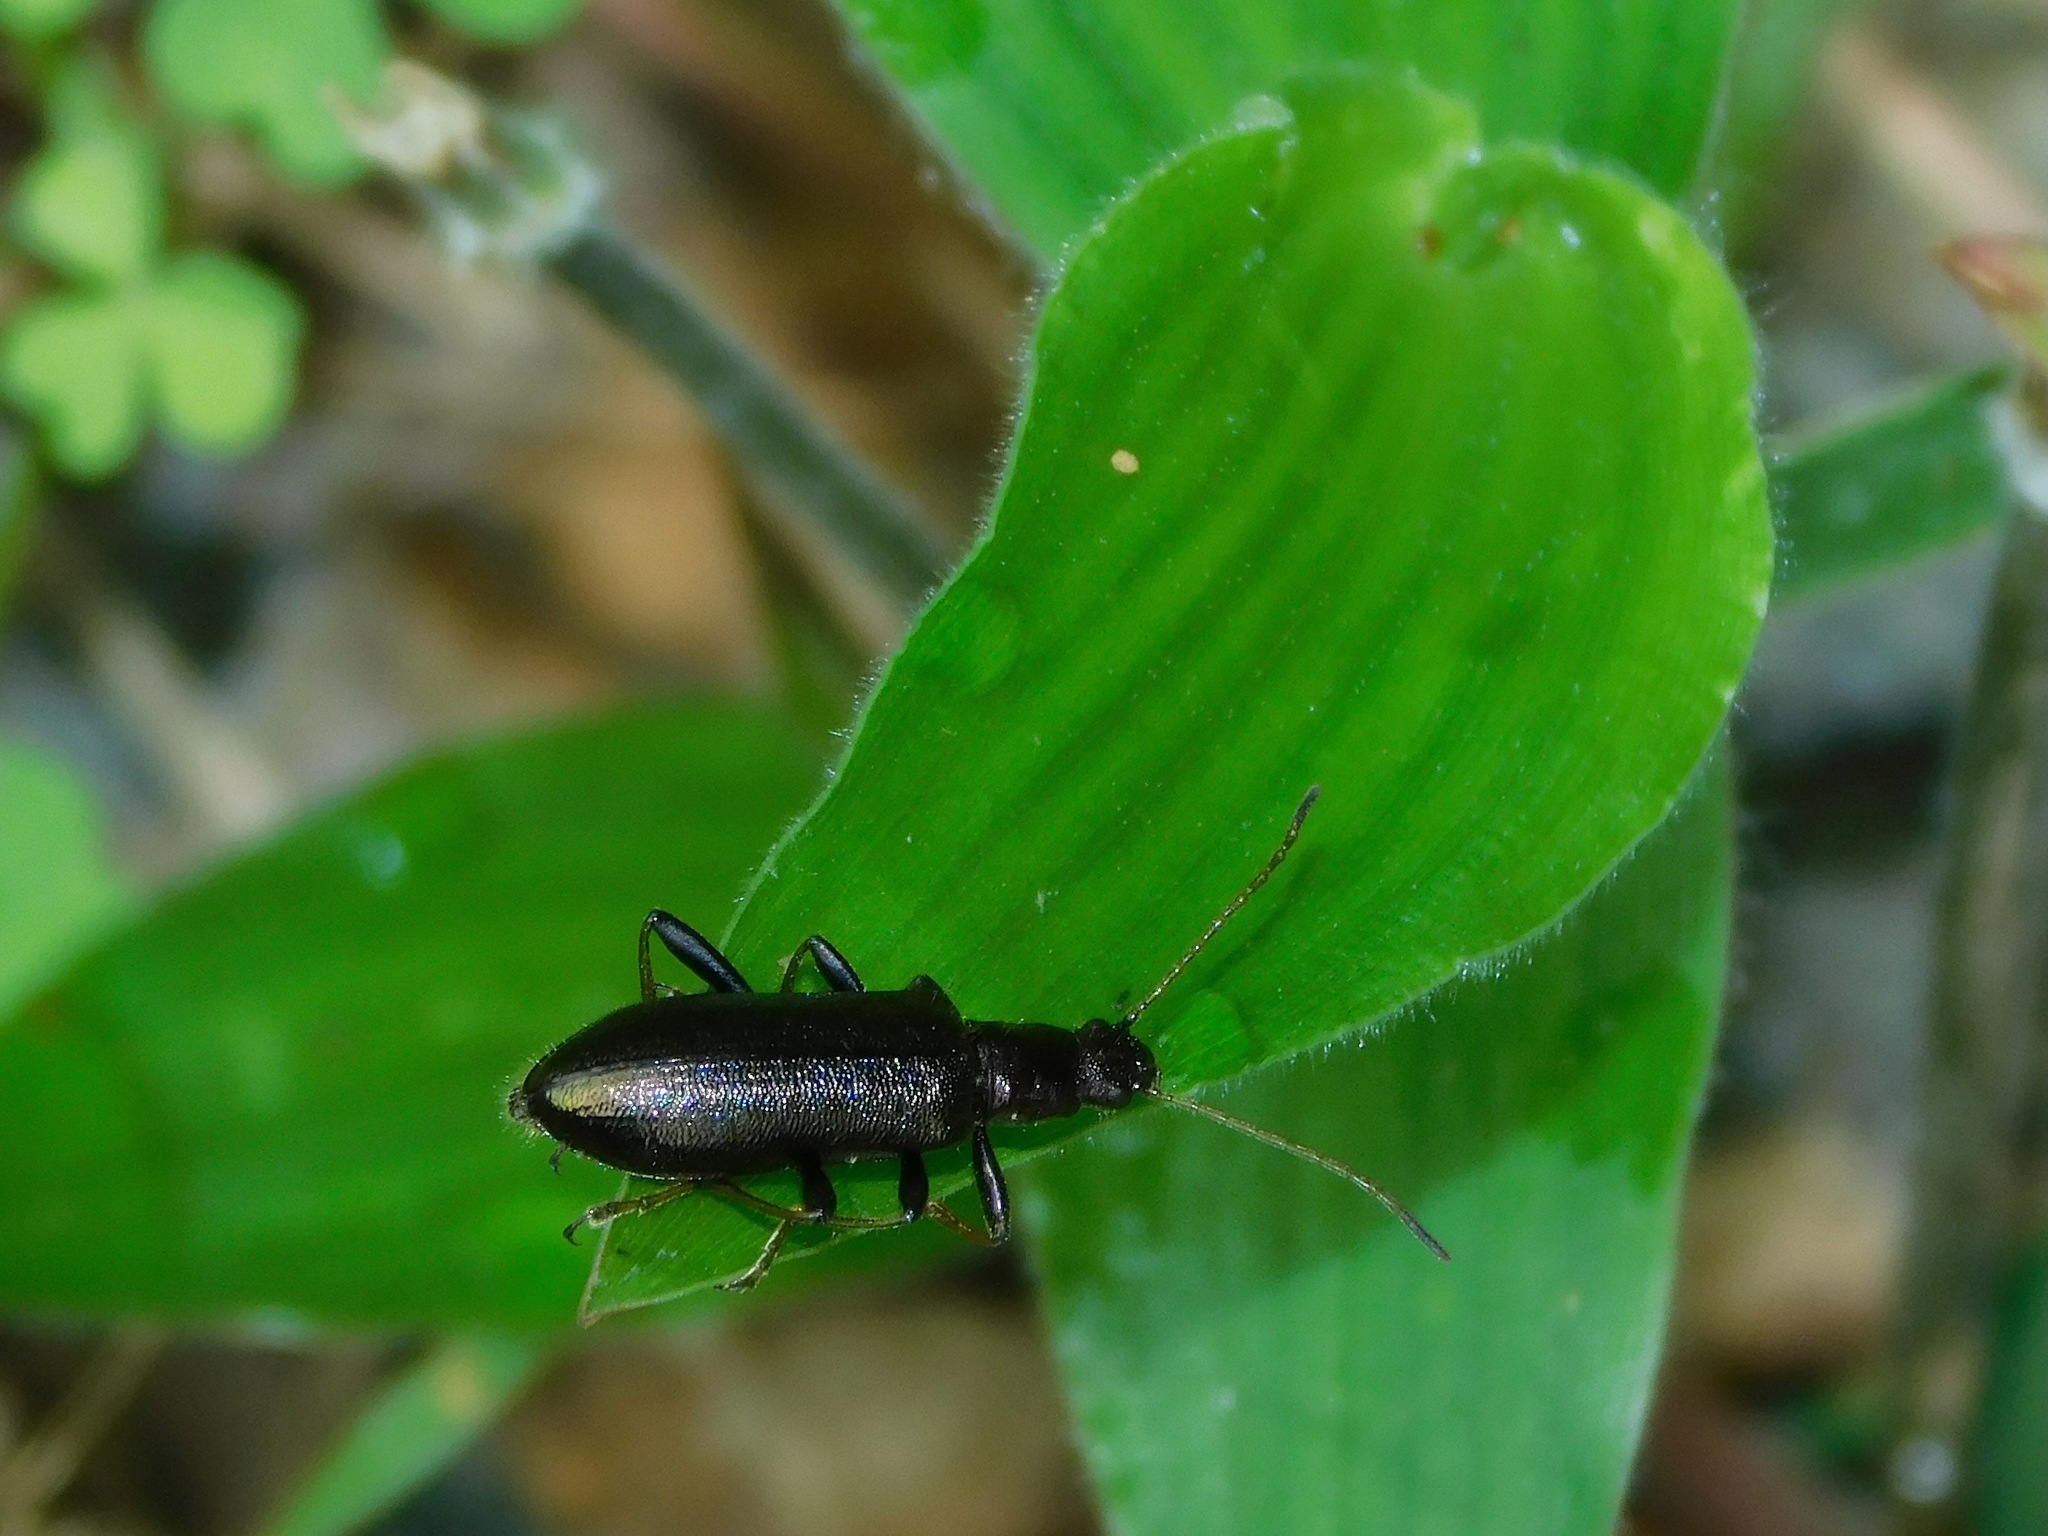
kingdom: Animalia
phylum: Arthropoda
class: Insecta
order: Coleoptera
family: Tenebrionidae
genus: Arthromacra
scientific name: Arthromacra aenea
